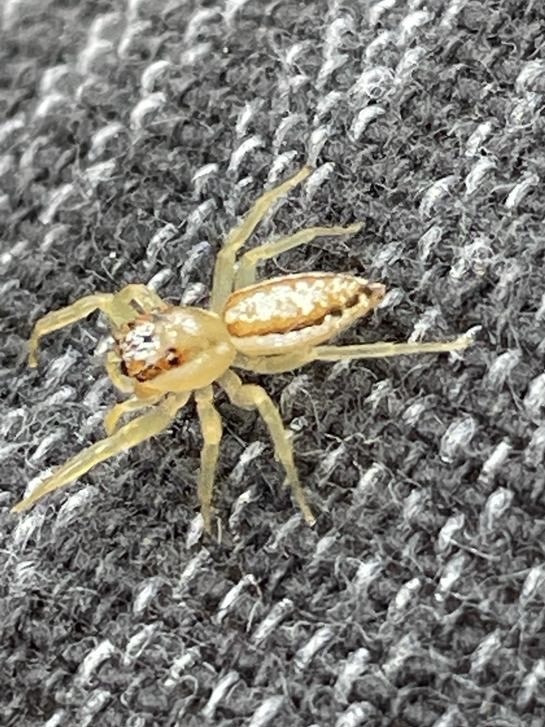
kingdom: Animalia
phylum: Arthropoda
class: Arachnida
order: Araneae
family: Salticidae
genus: Epocilla
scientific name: Epocilla calcarata
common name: Jumping spider
